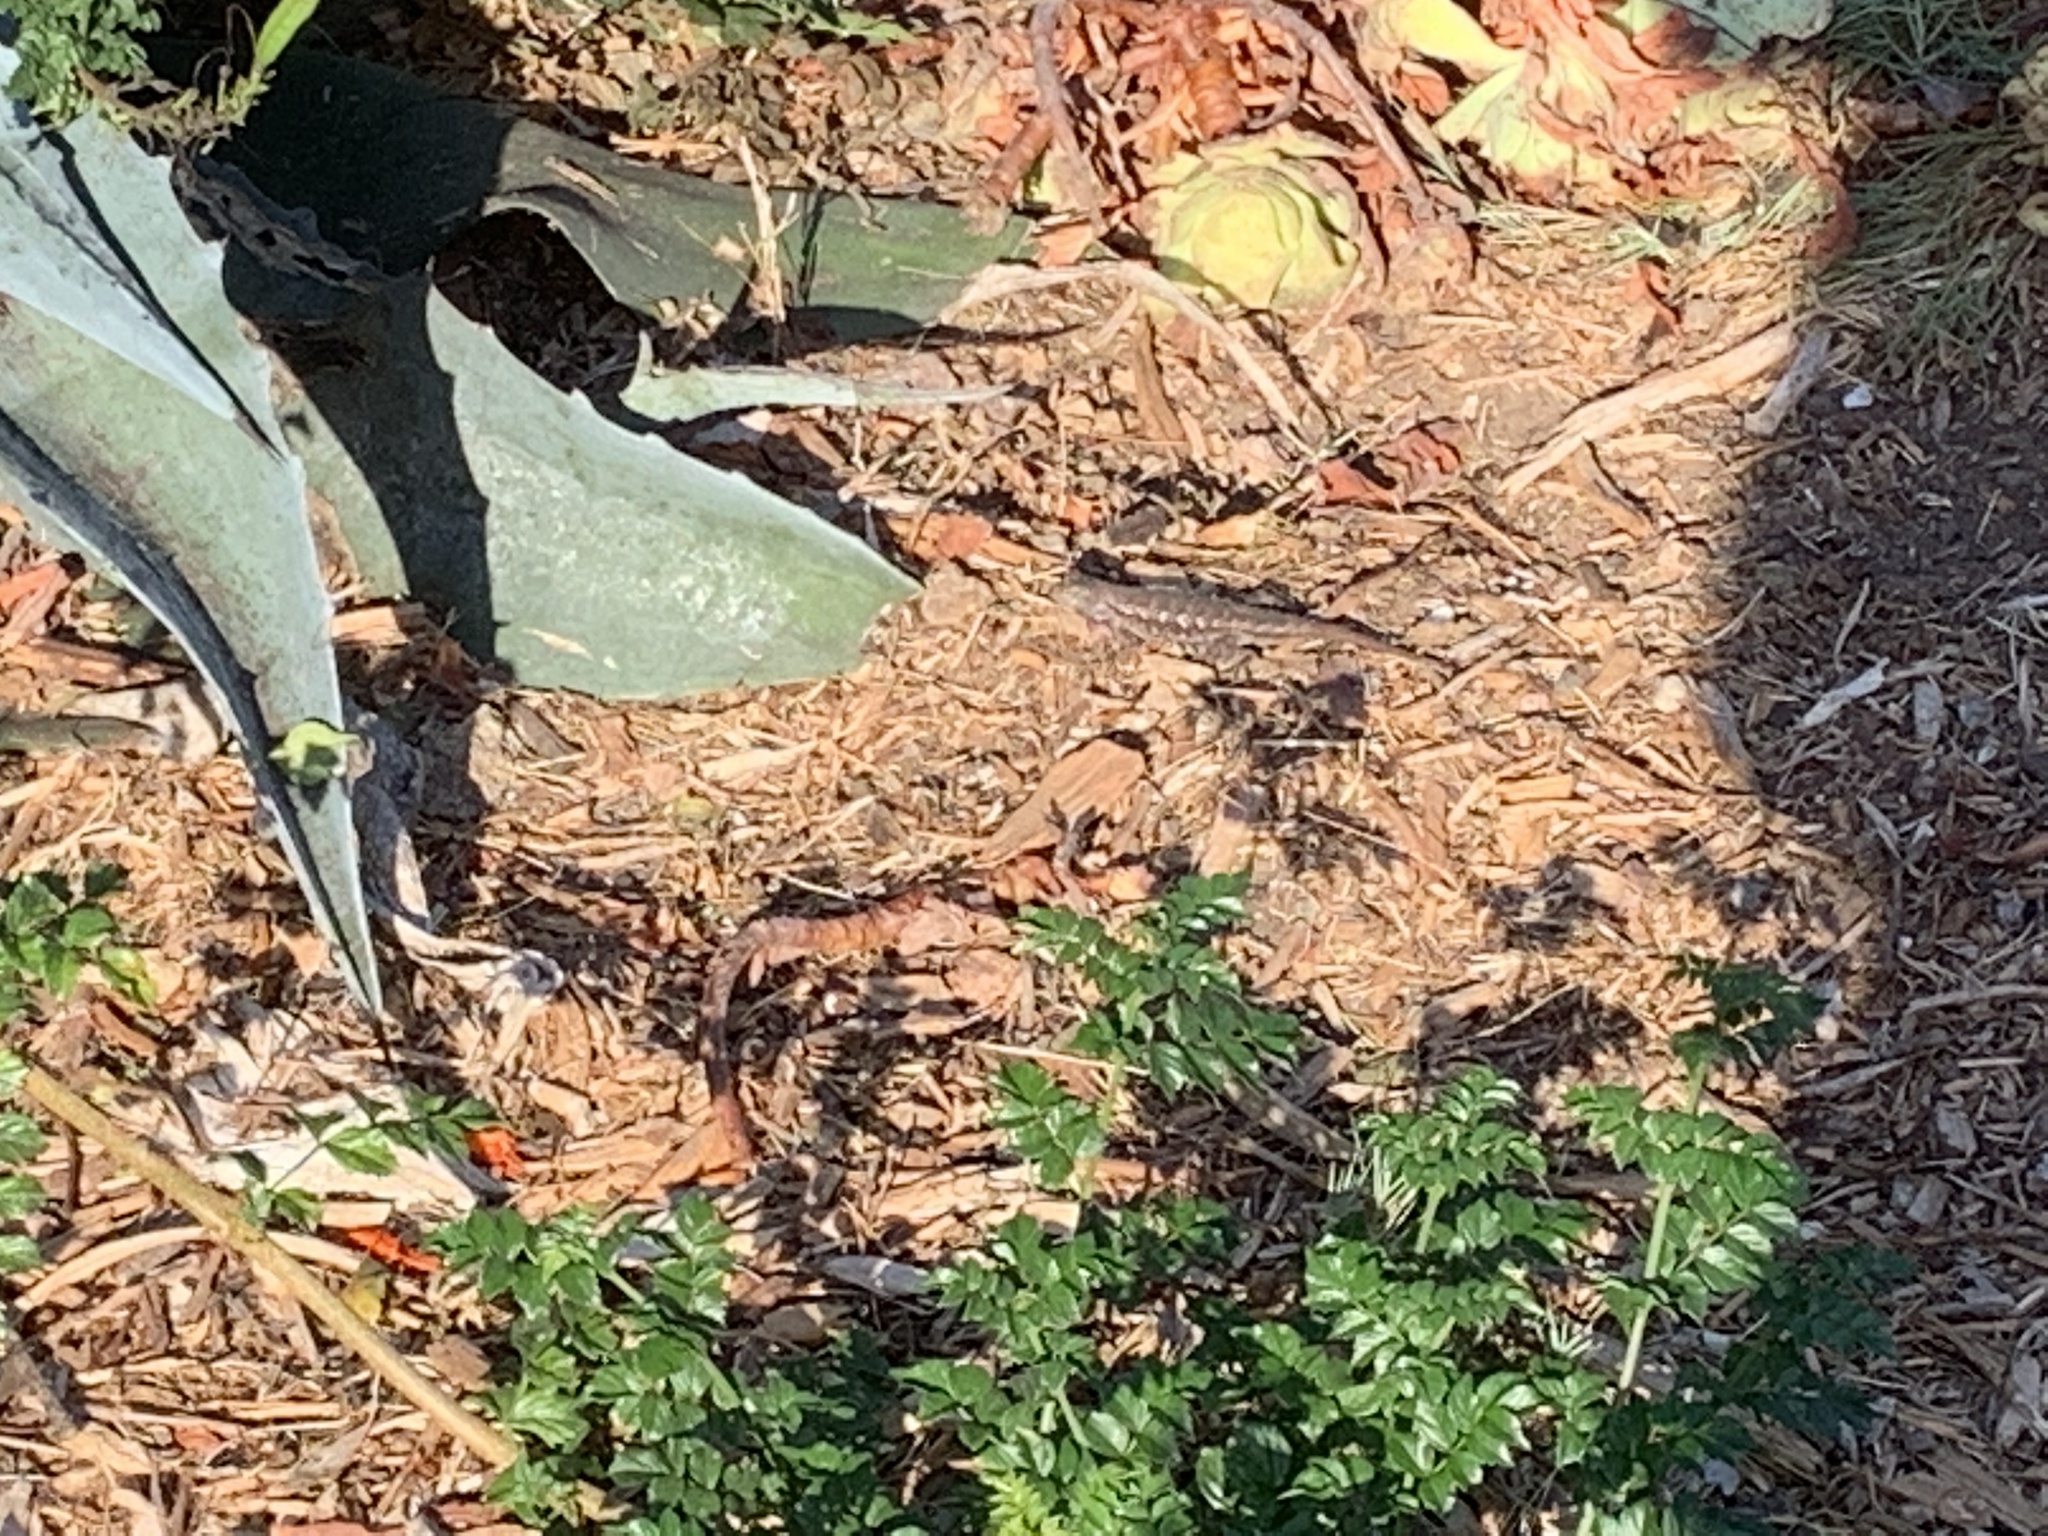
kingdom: Animalia
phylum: Chordata
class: Squamata
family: Phrynosomatidae
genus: Sceloporus
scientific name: Sceloporus occidentalis
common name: Western fence lizard
